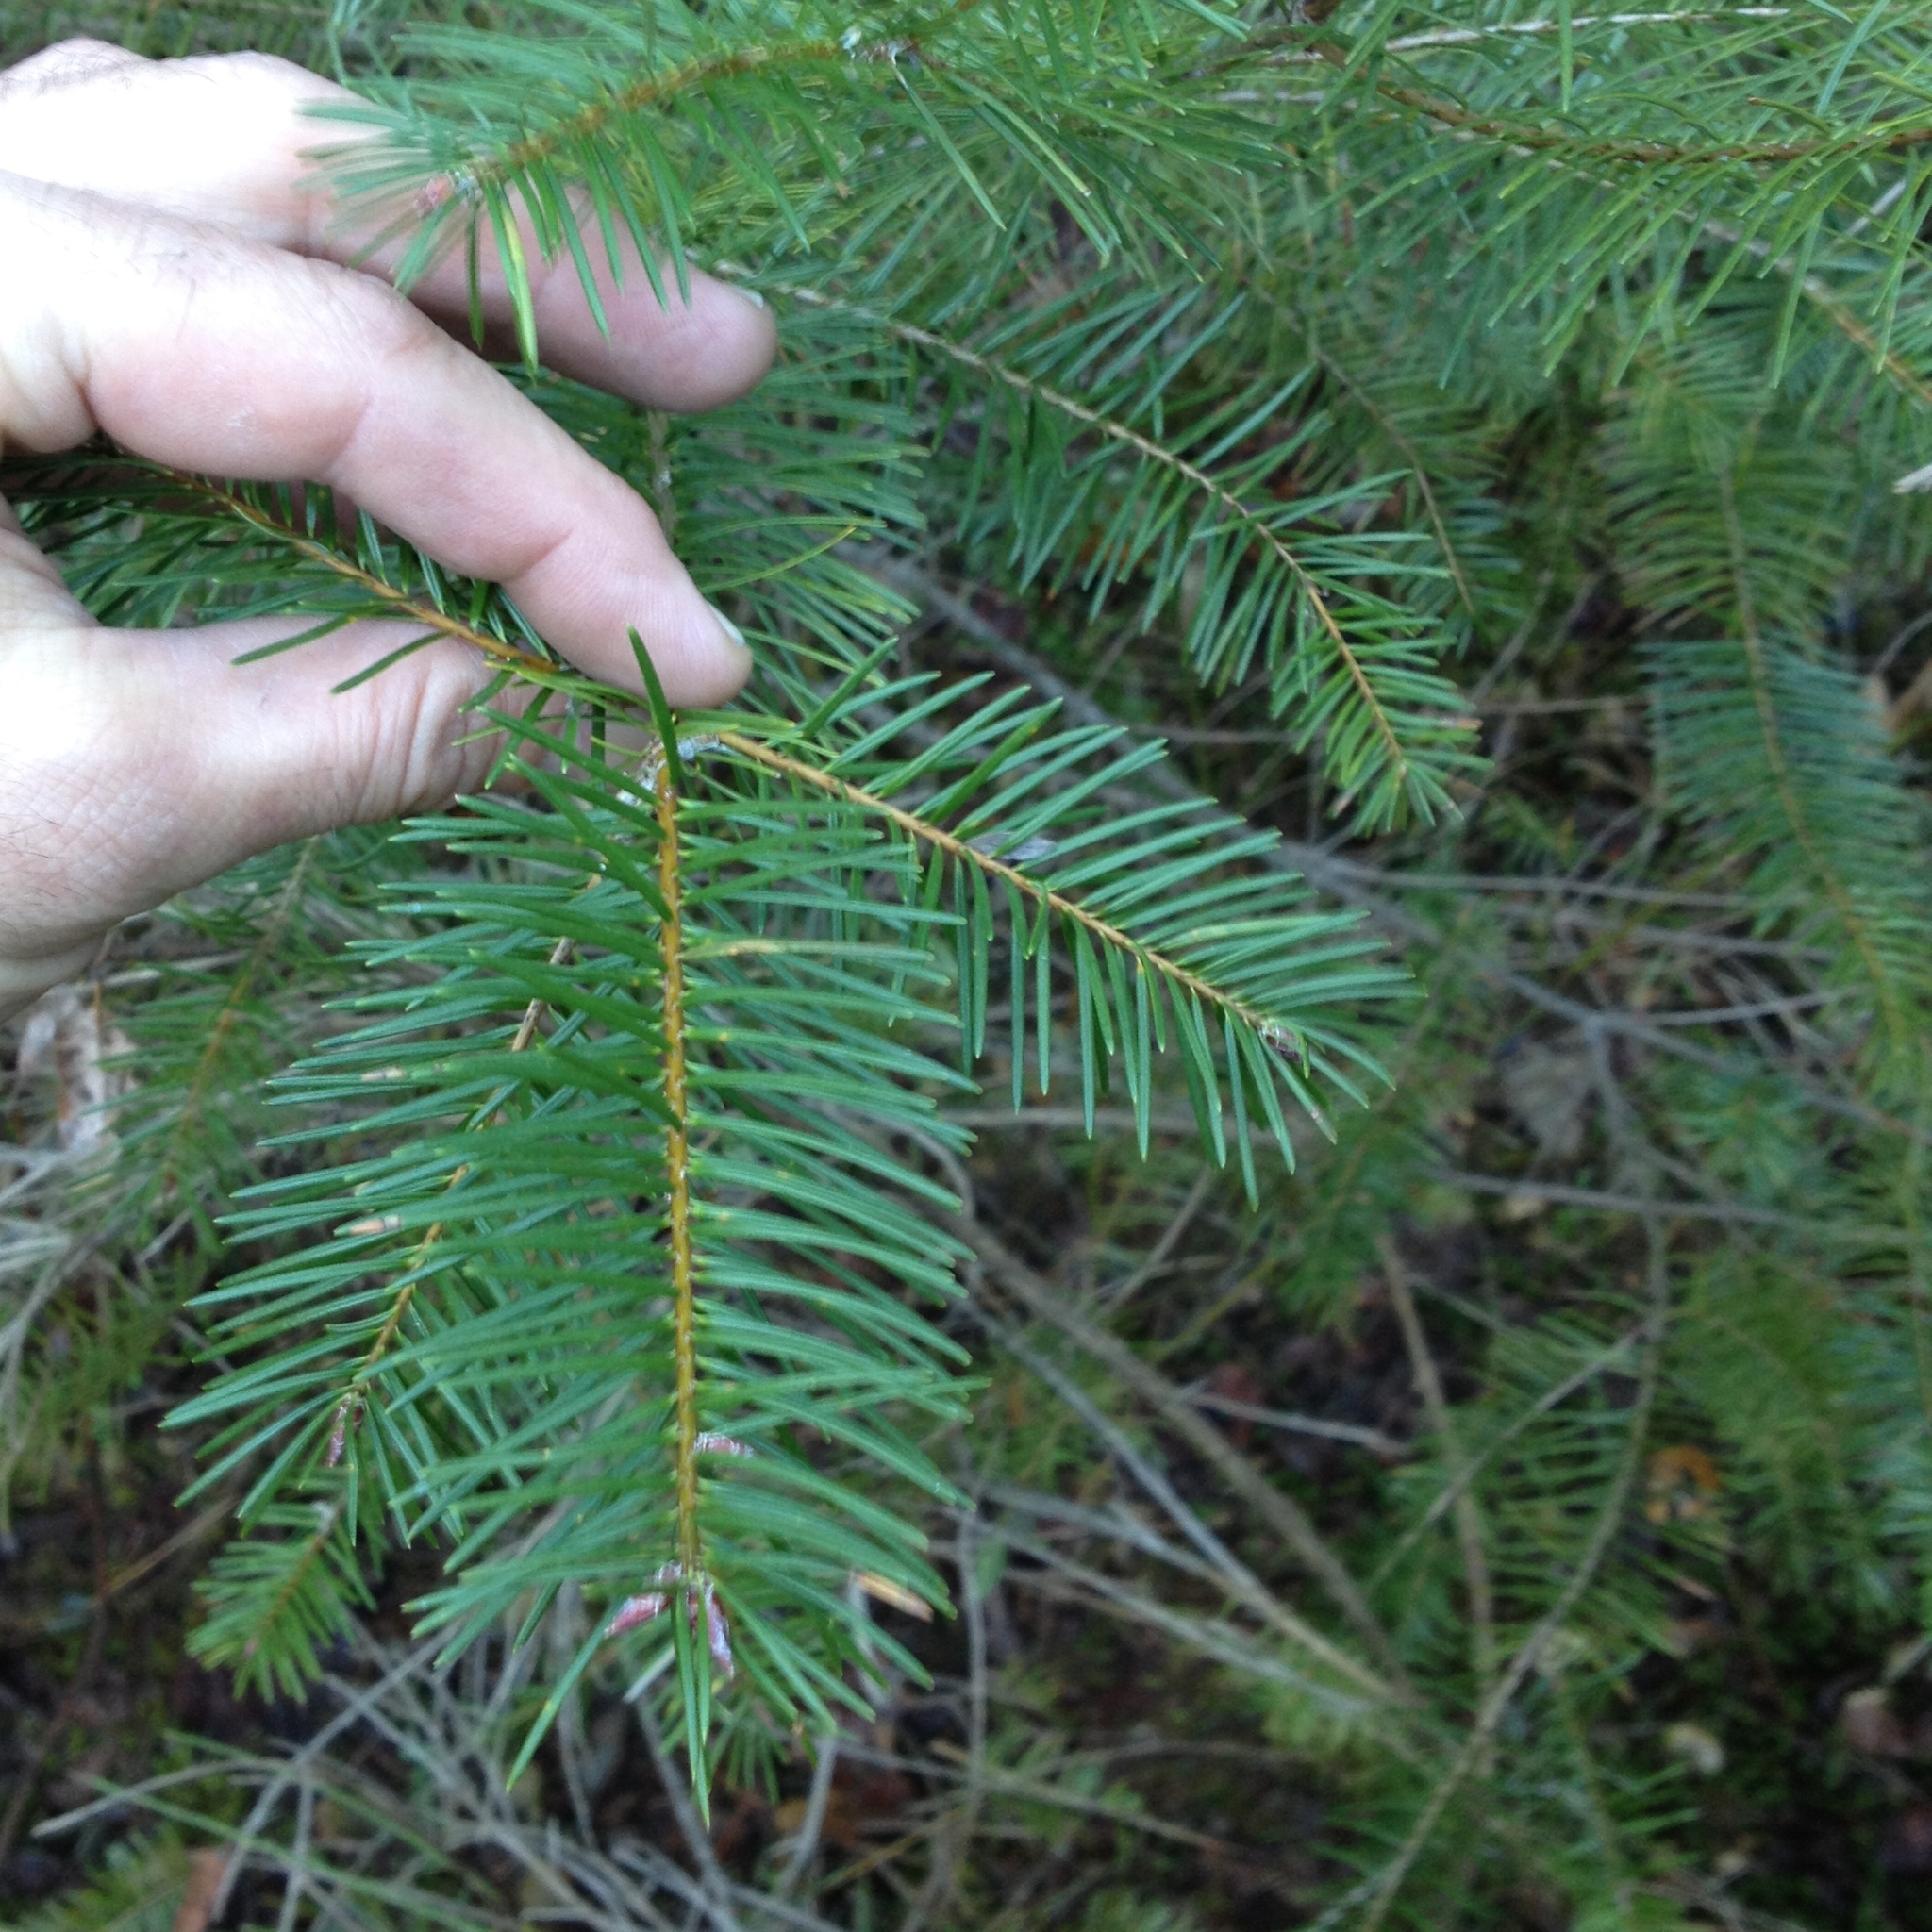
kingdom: Plantae
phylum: Tracheophyta
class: Pinopsida
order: Pinales
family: Pinaceae
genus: Pseudotsuga
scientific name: Pseudotsuga menziesii
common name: Douglas fir
